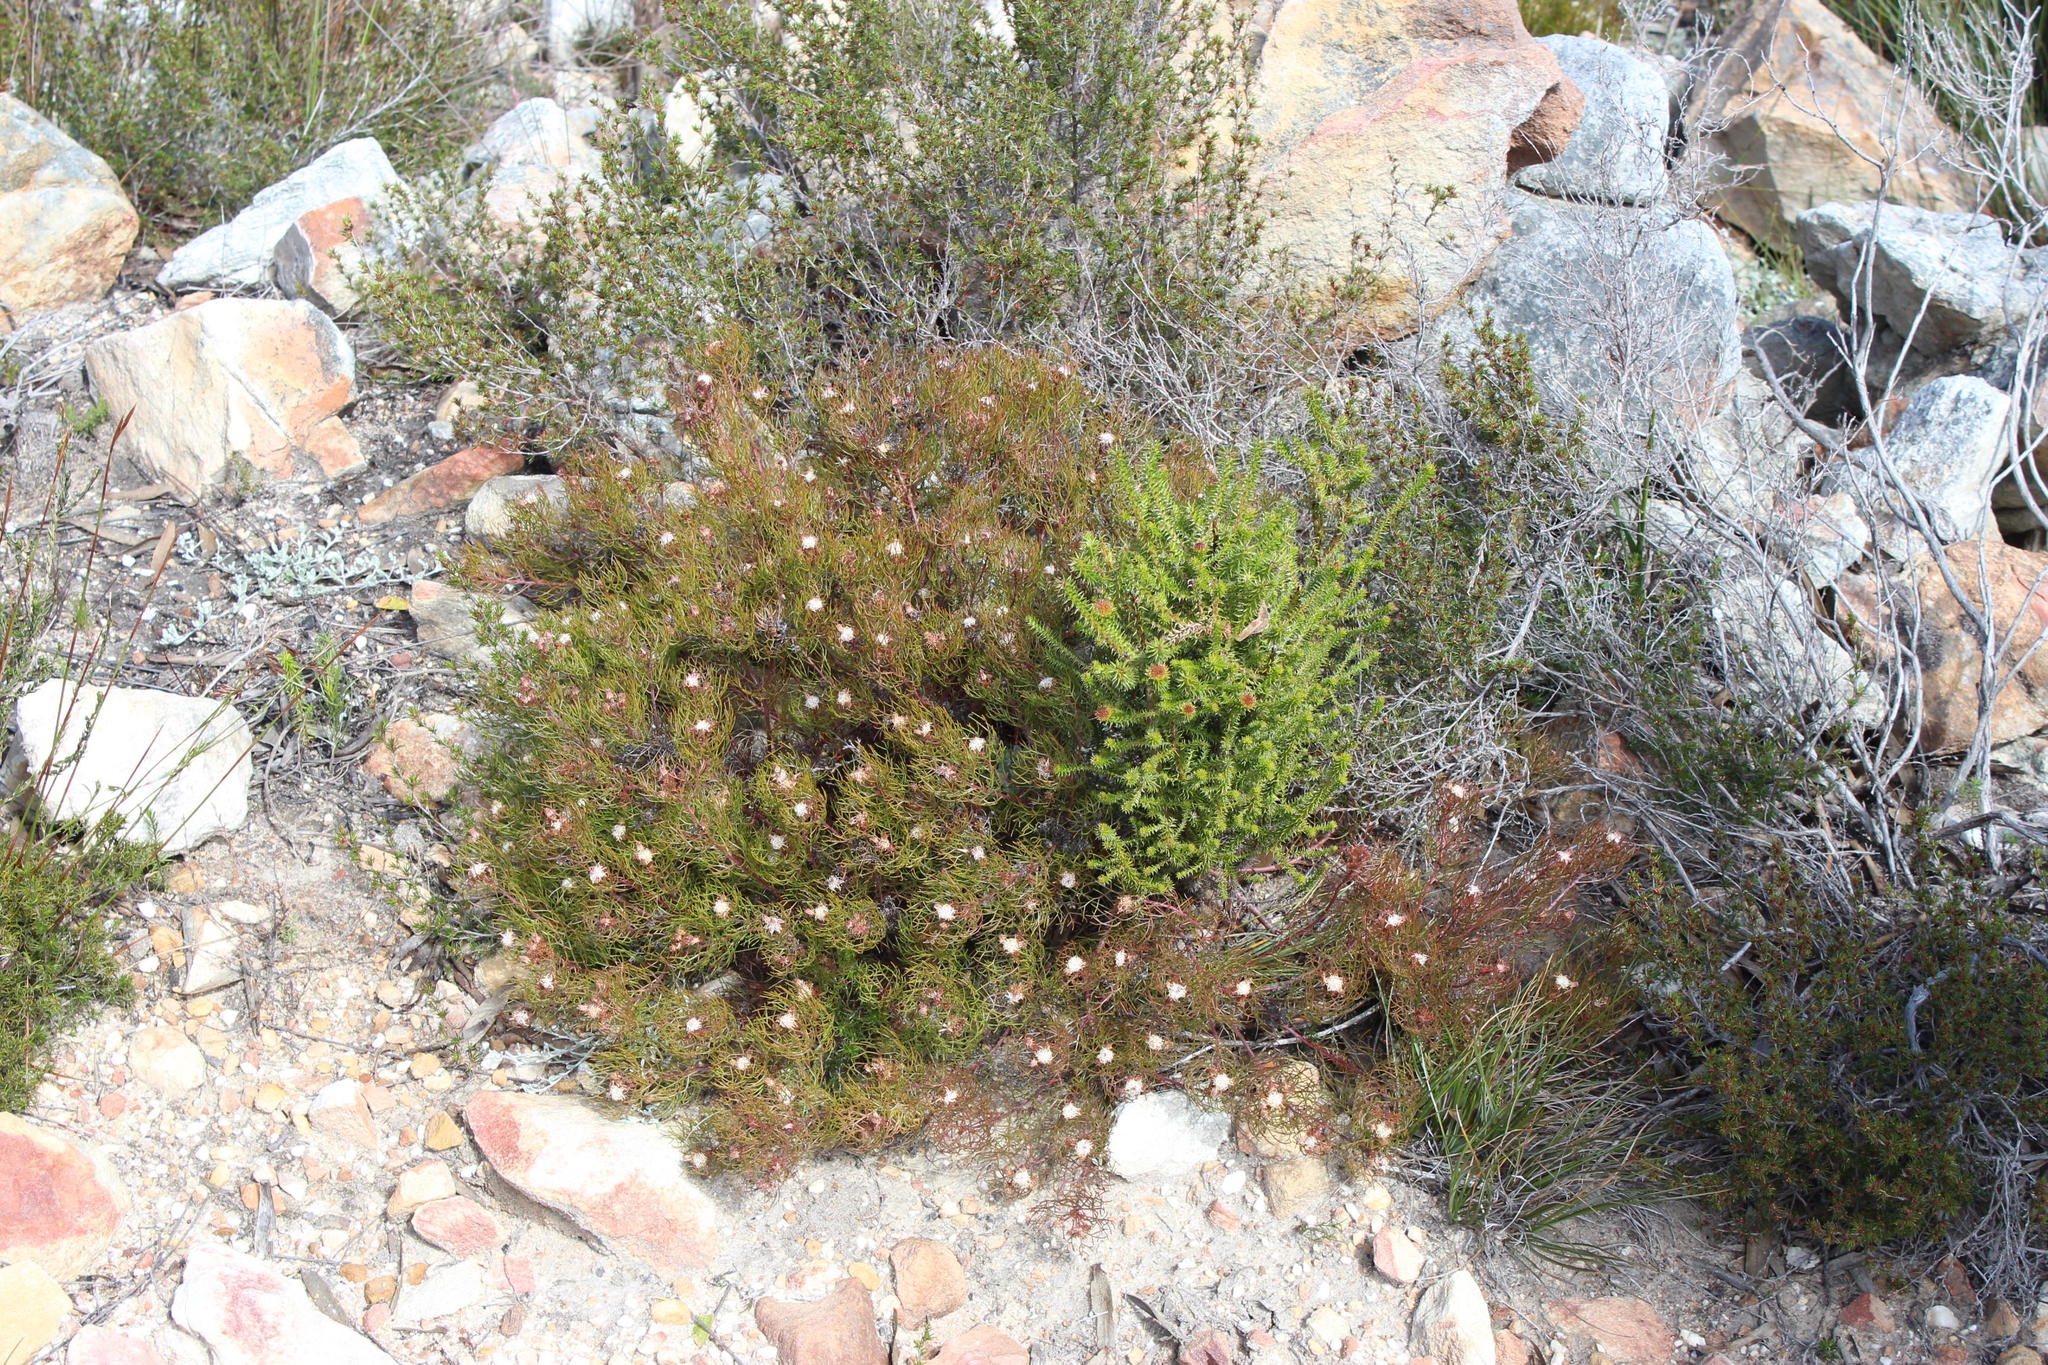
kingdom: Plantae
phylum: Tracheophyta
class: Magnoliopsida
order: Proteales
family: Proteaceae
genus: Serruria
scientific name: Serruria inconspicua
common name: Cryptic spiderhead
